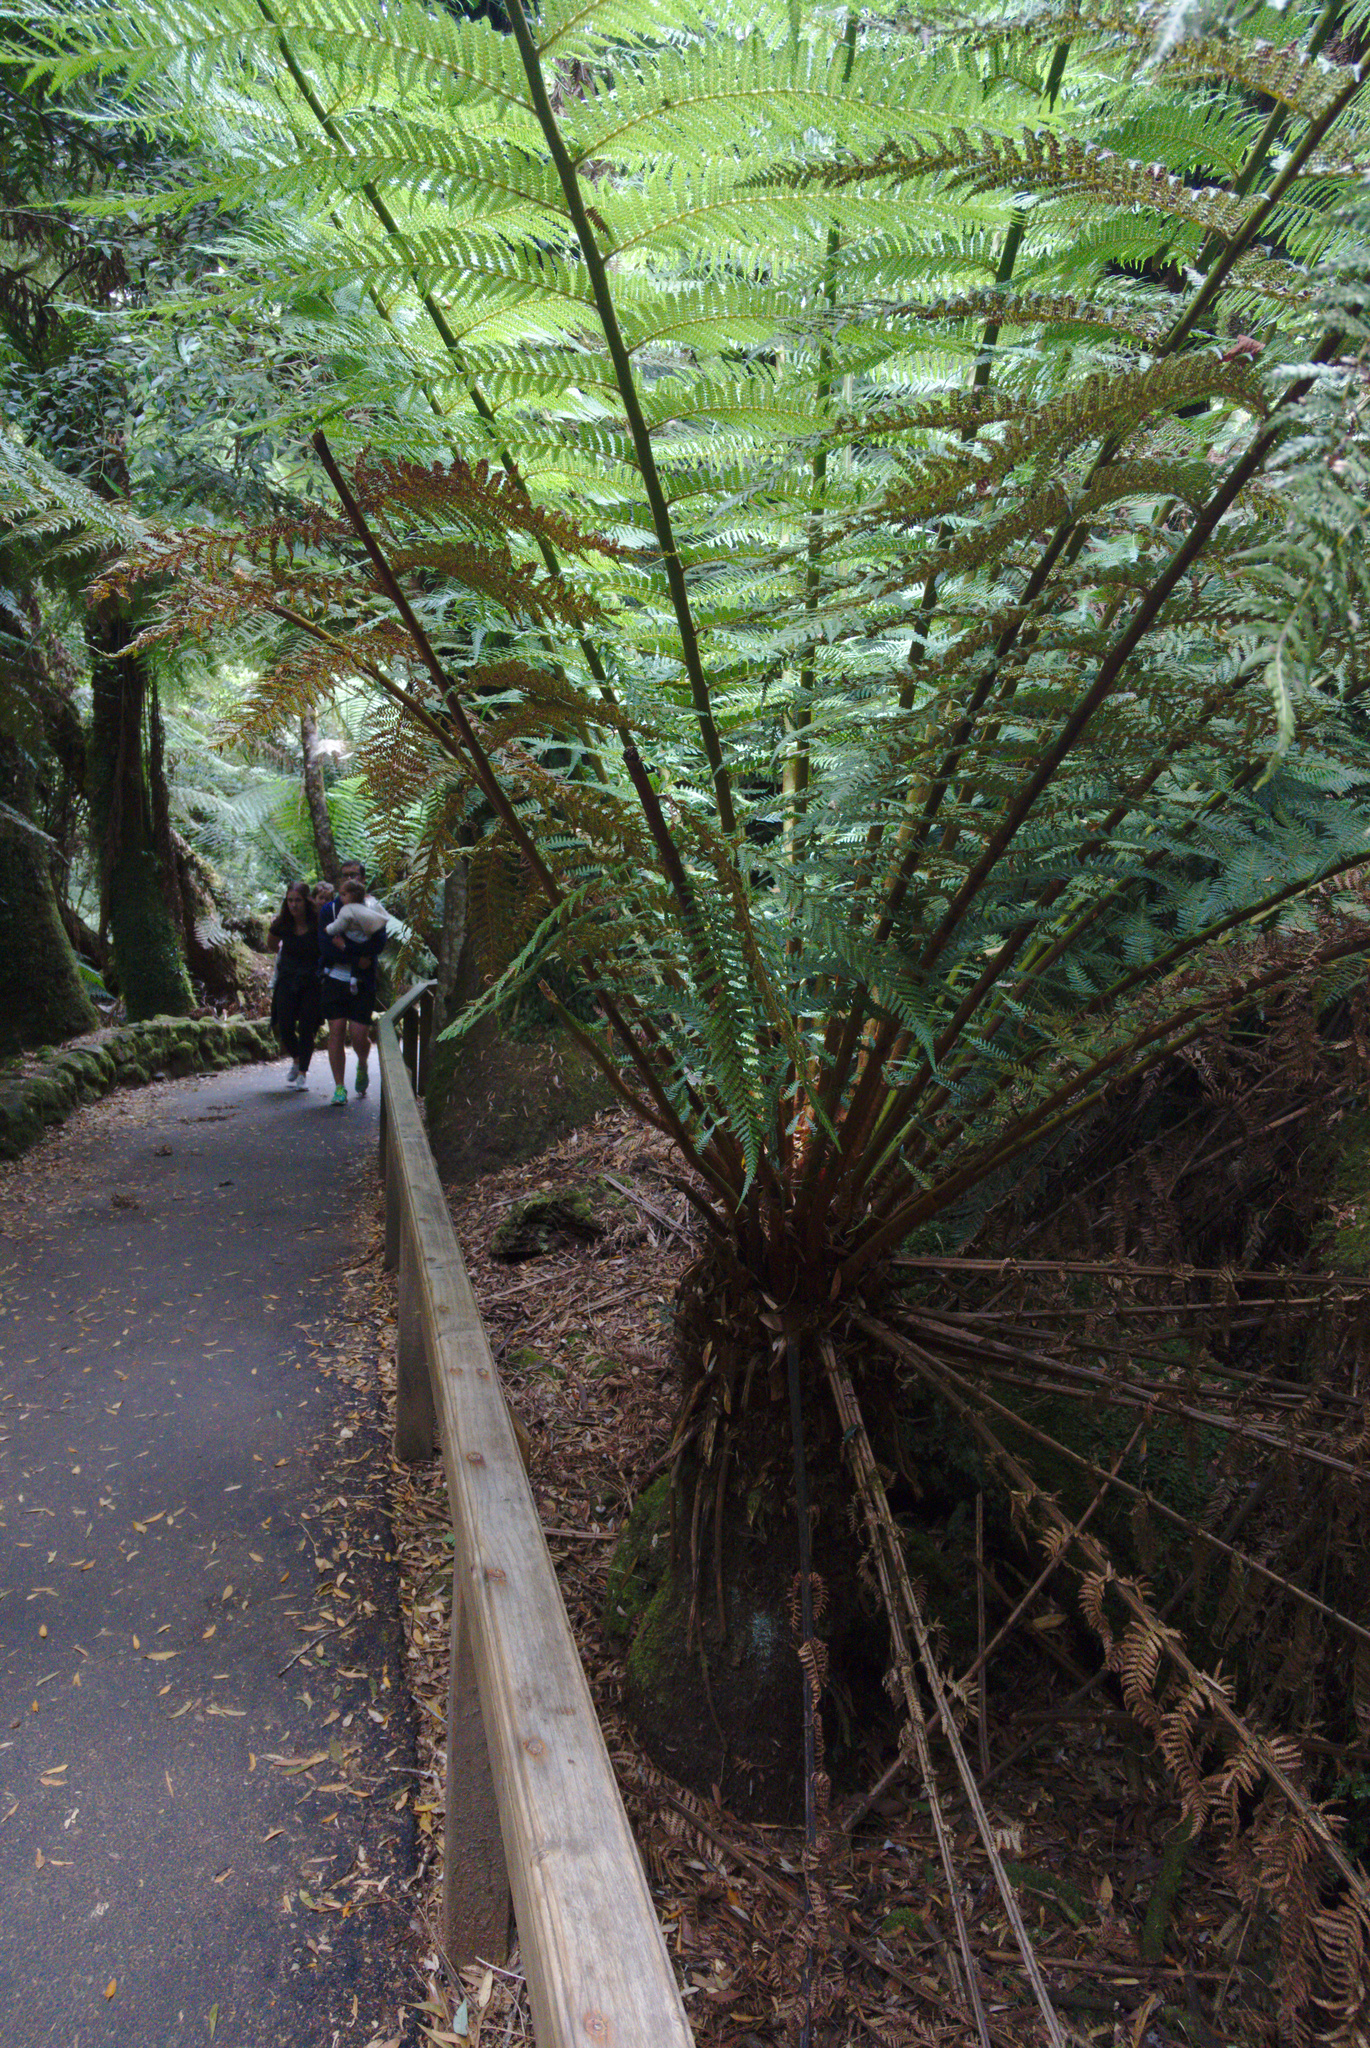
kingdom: Plantae
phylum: Tracheophyta
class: Polypodiopsida
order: Cyatheales
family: Dicksoniaceae
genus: Dicksonia
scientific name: Dicksonia antarctica
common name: Australian treefern
